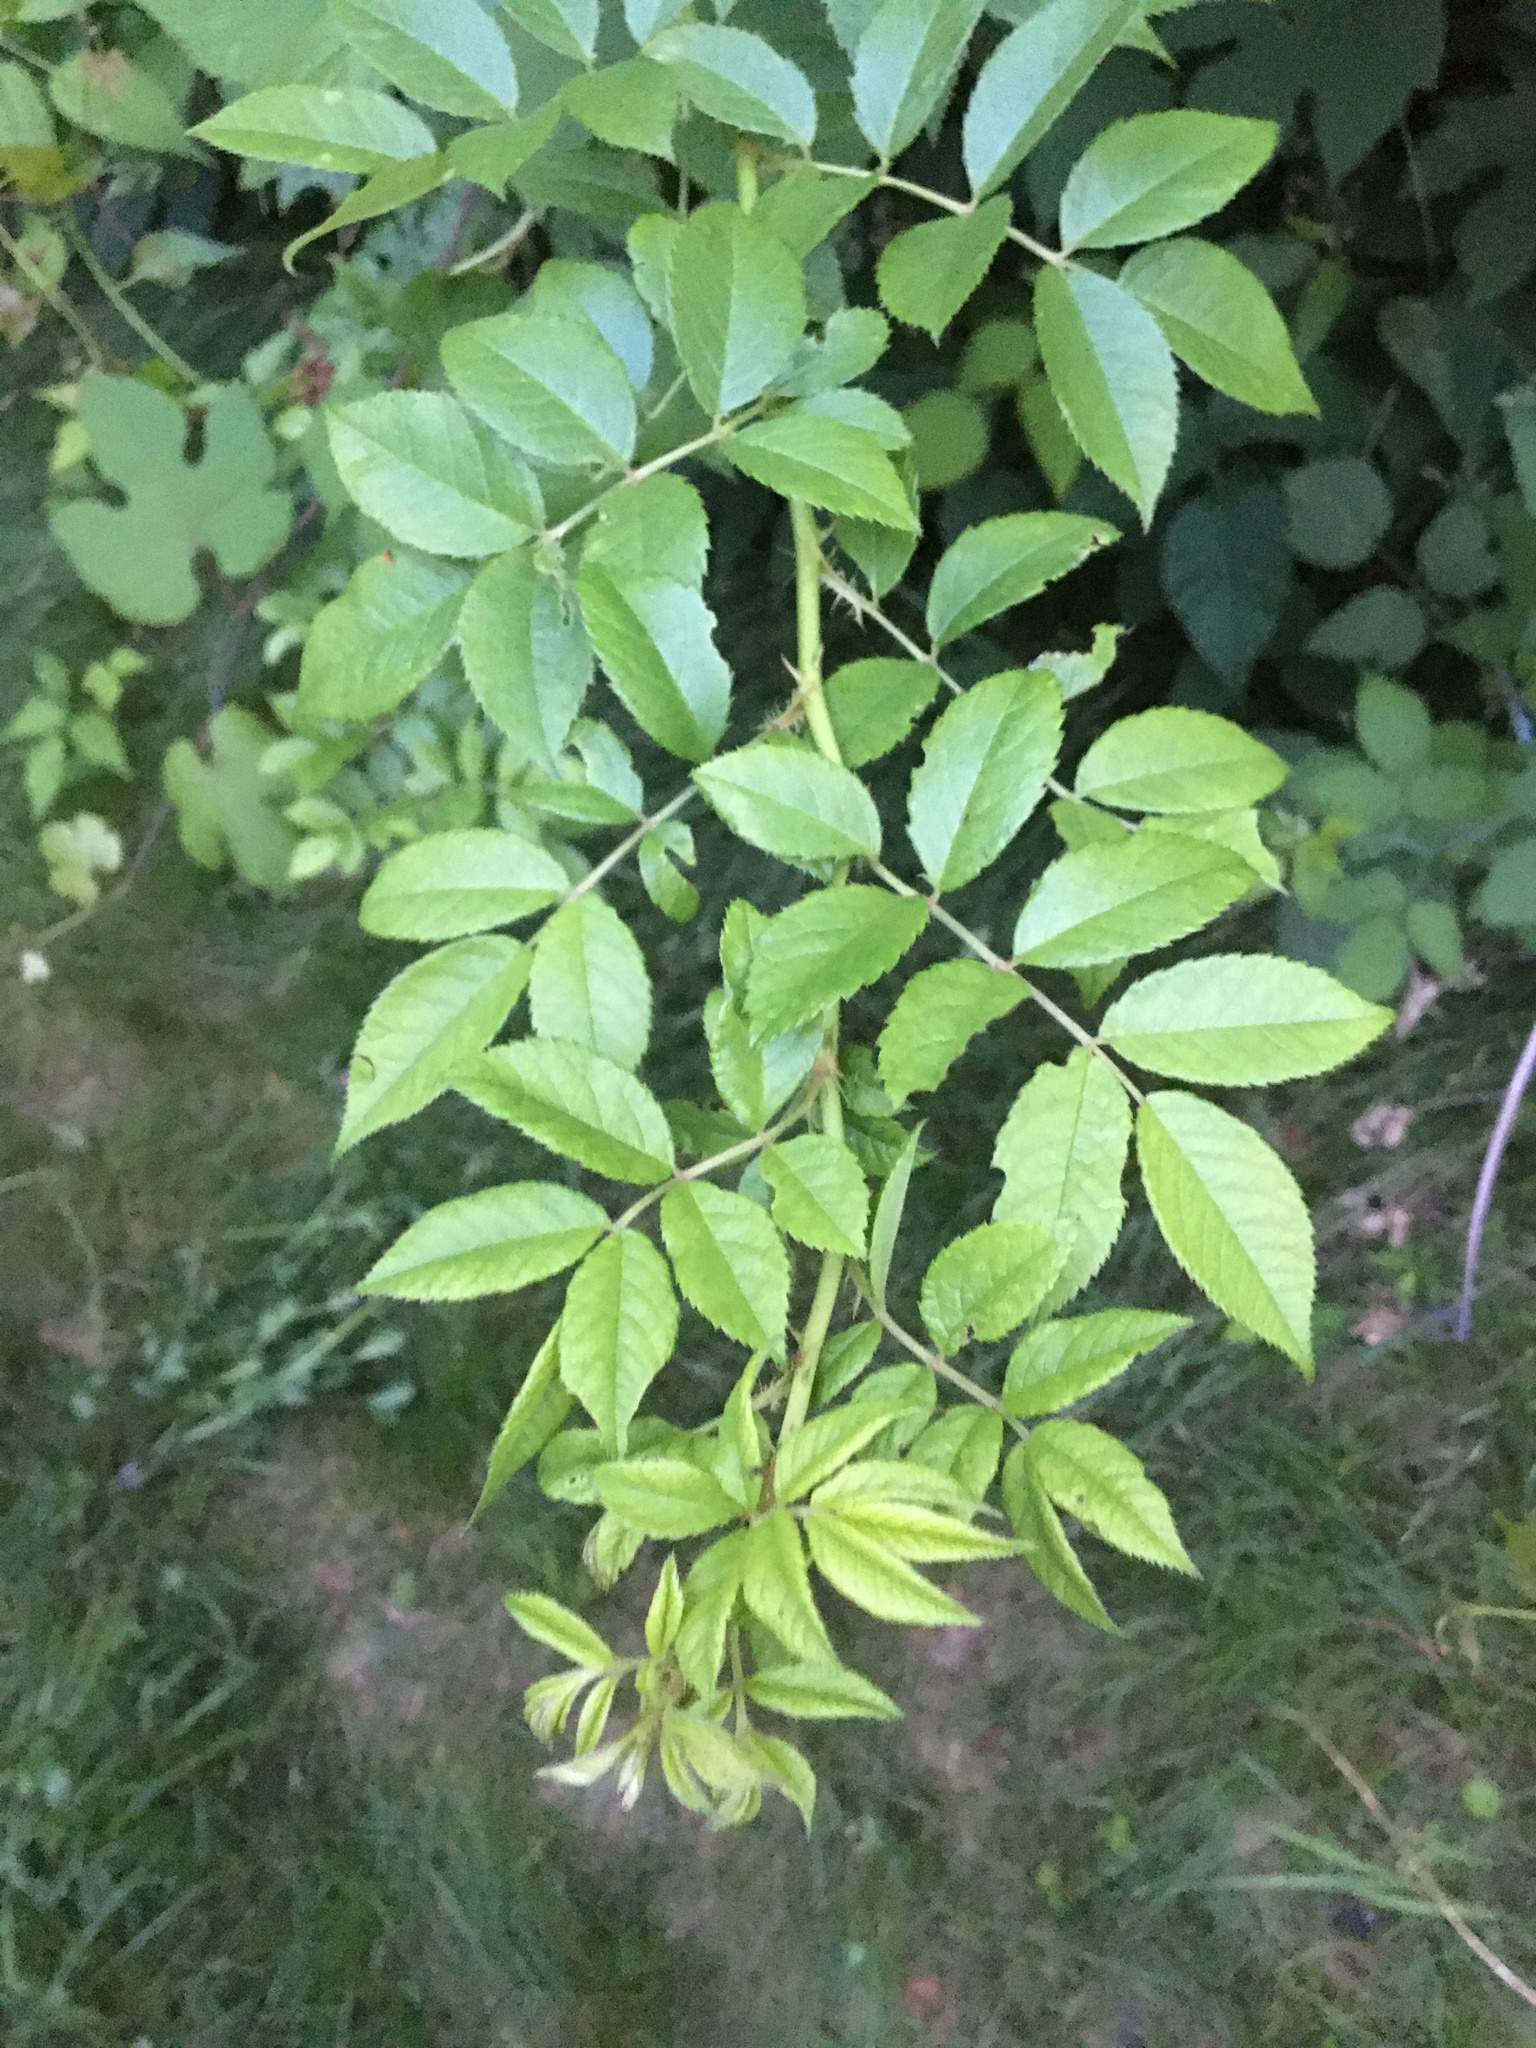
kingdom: Plantae
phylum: Tracheophyta
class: Magnoliopsida
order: Rosales
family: Rosaceae
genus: Rosa
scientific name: Rosa multiflora
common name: Multiflora rose
